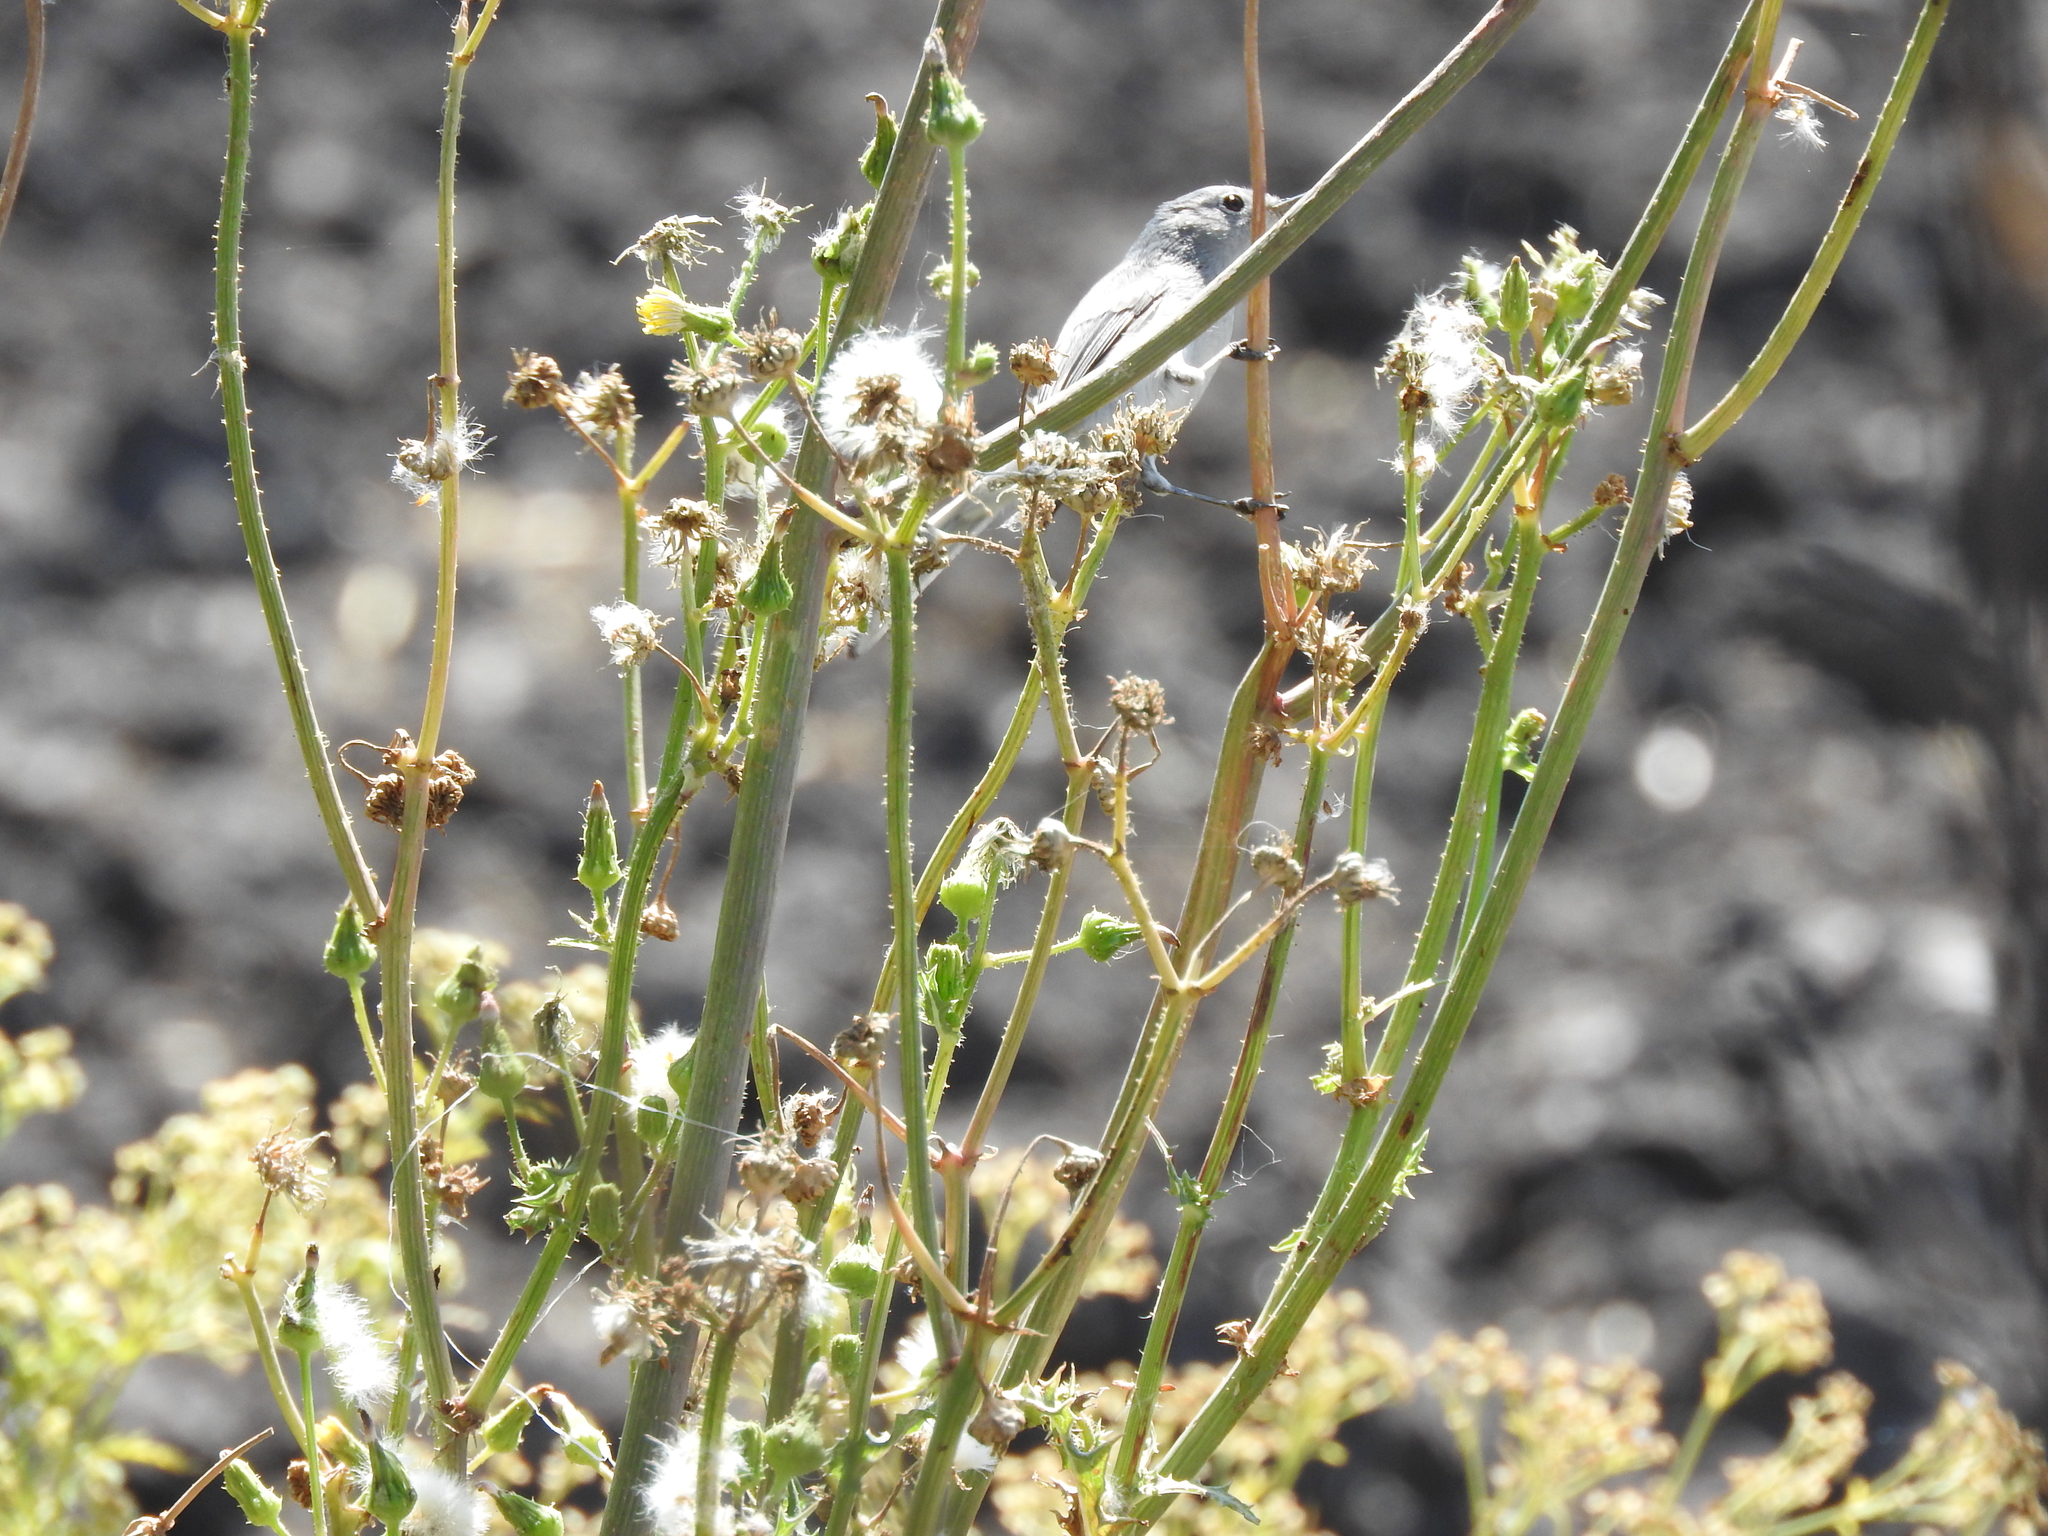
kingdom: Animalia
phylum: Chordata
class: Aves
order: Passeriformes
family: Polioptilidae
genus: Polioptila
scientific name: Polioptila caerulea
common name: Blue-gray gnatcatcher
